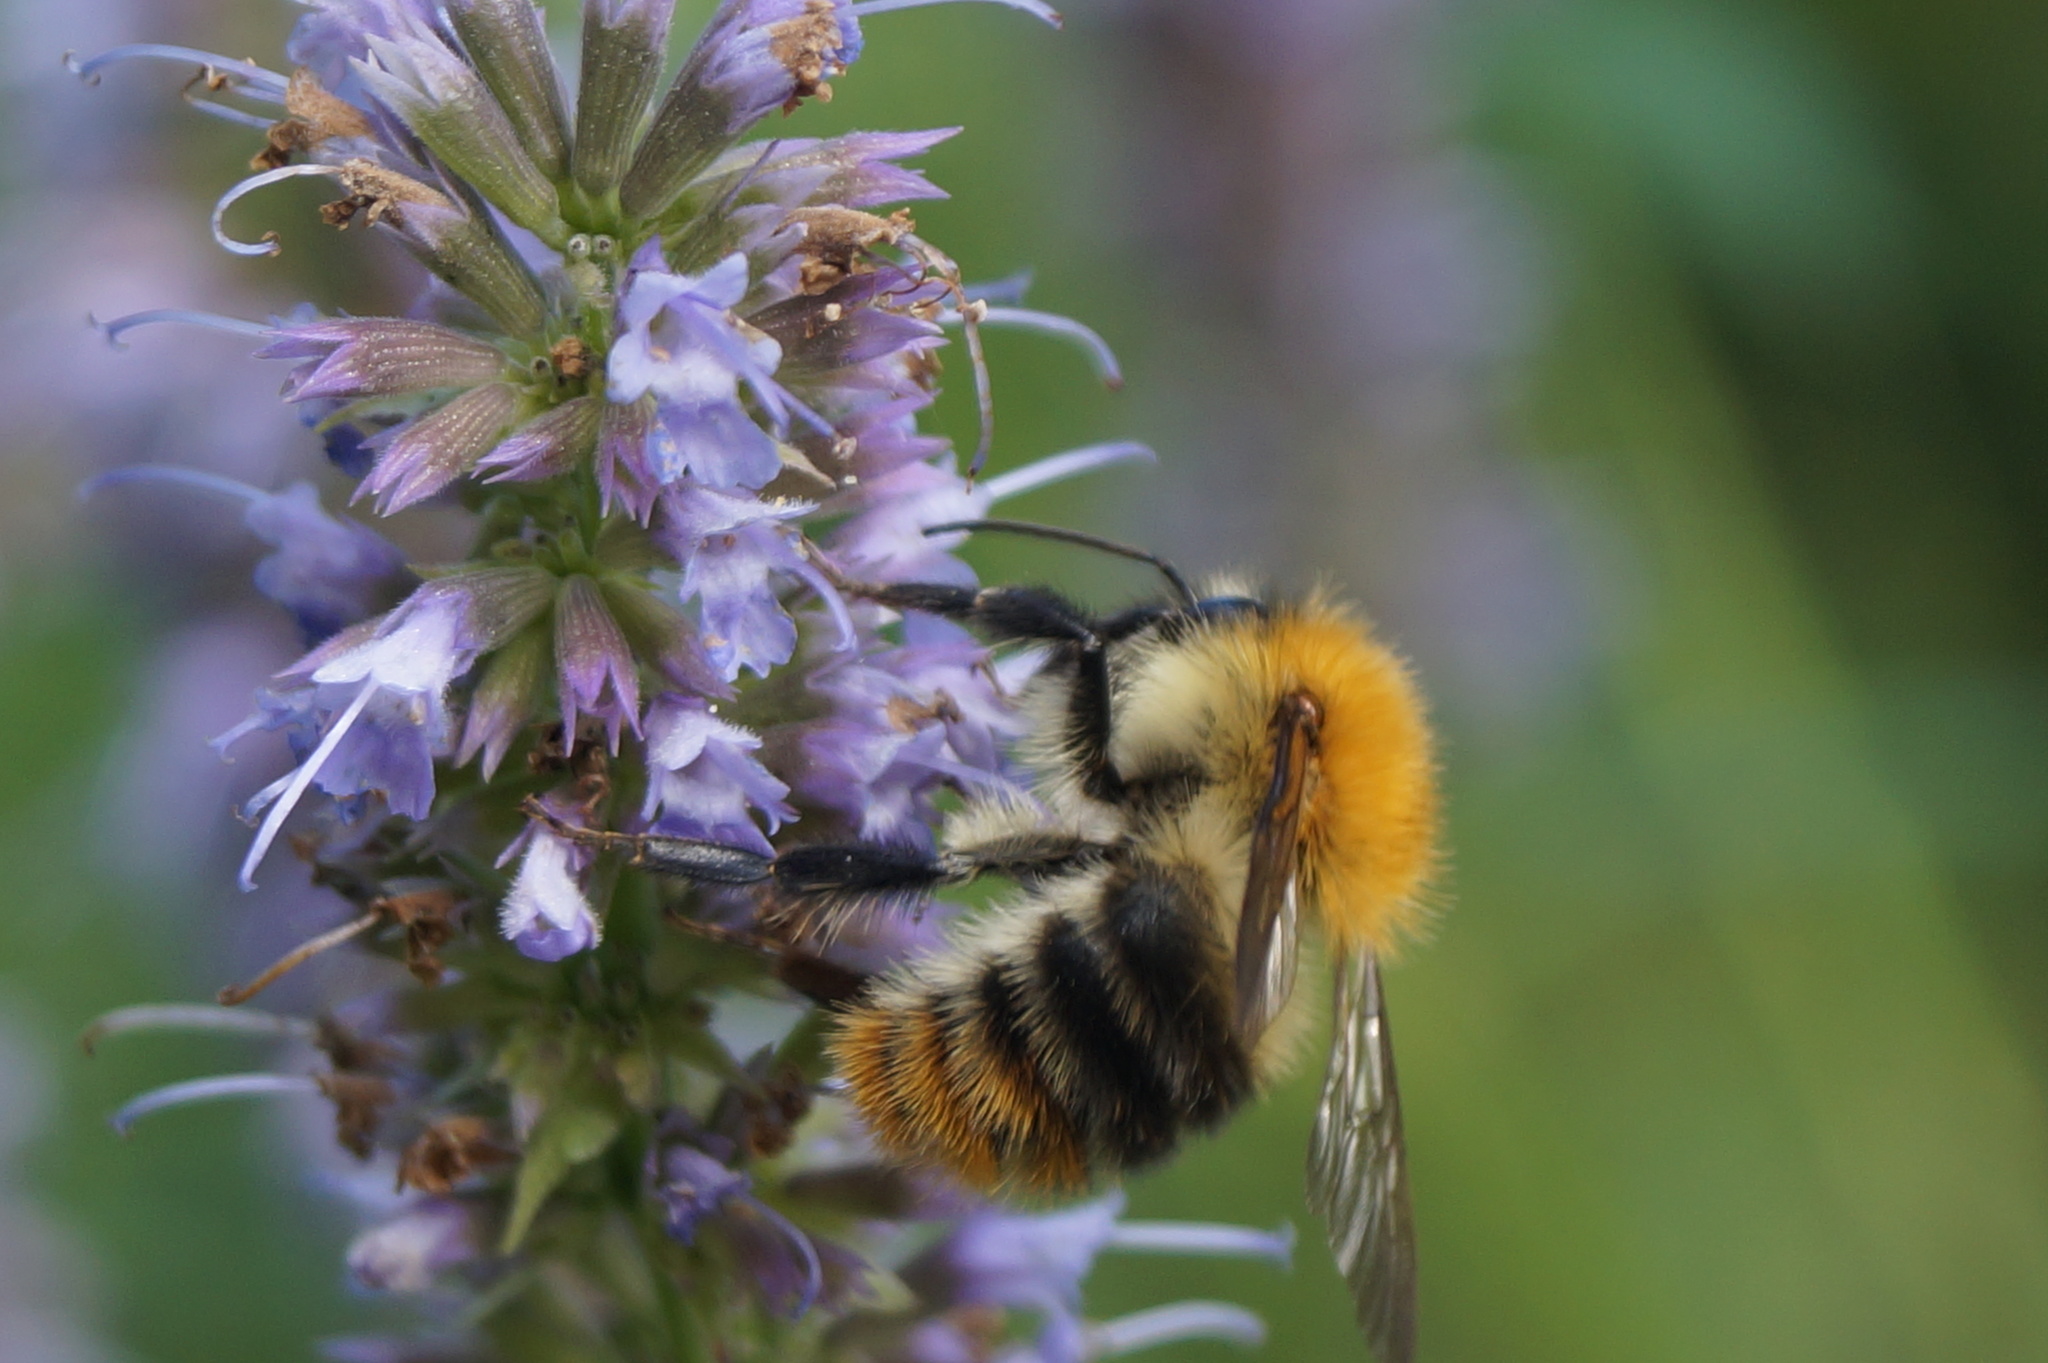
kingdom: Animalia
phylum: Arthropoda
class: Insecta
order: Hymenoptera
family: Apidae
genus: Bombus
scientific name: Bombus pascuorum
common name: Common carder bee
